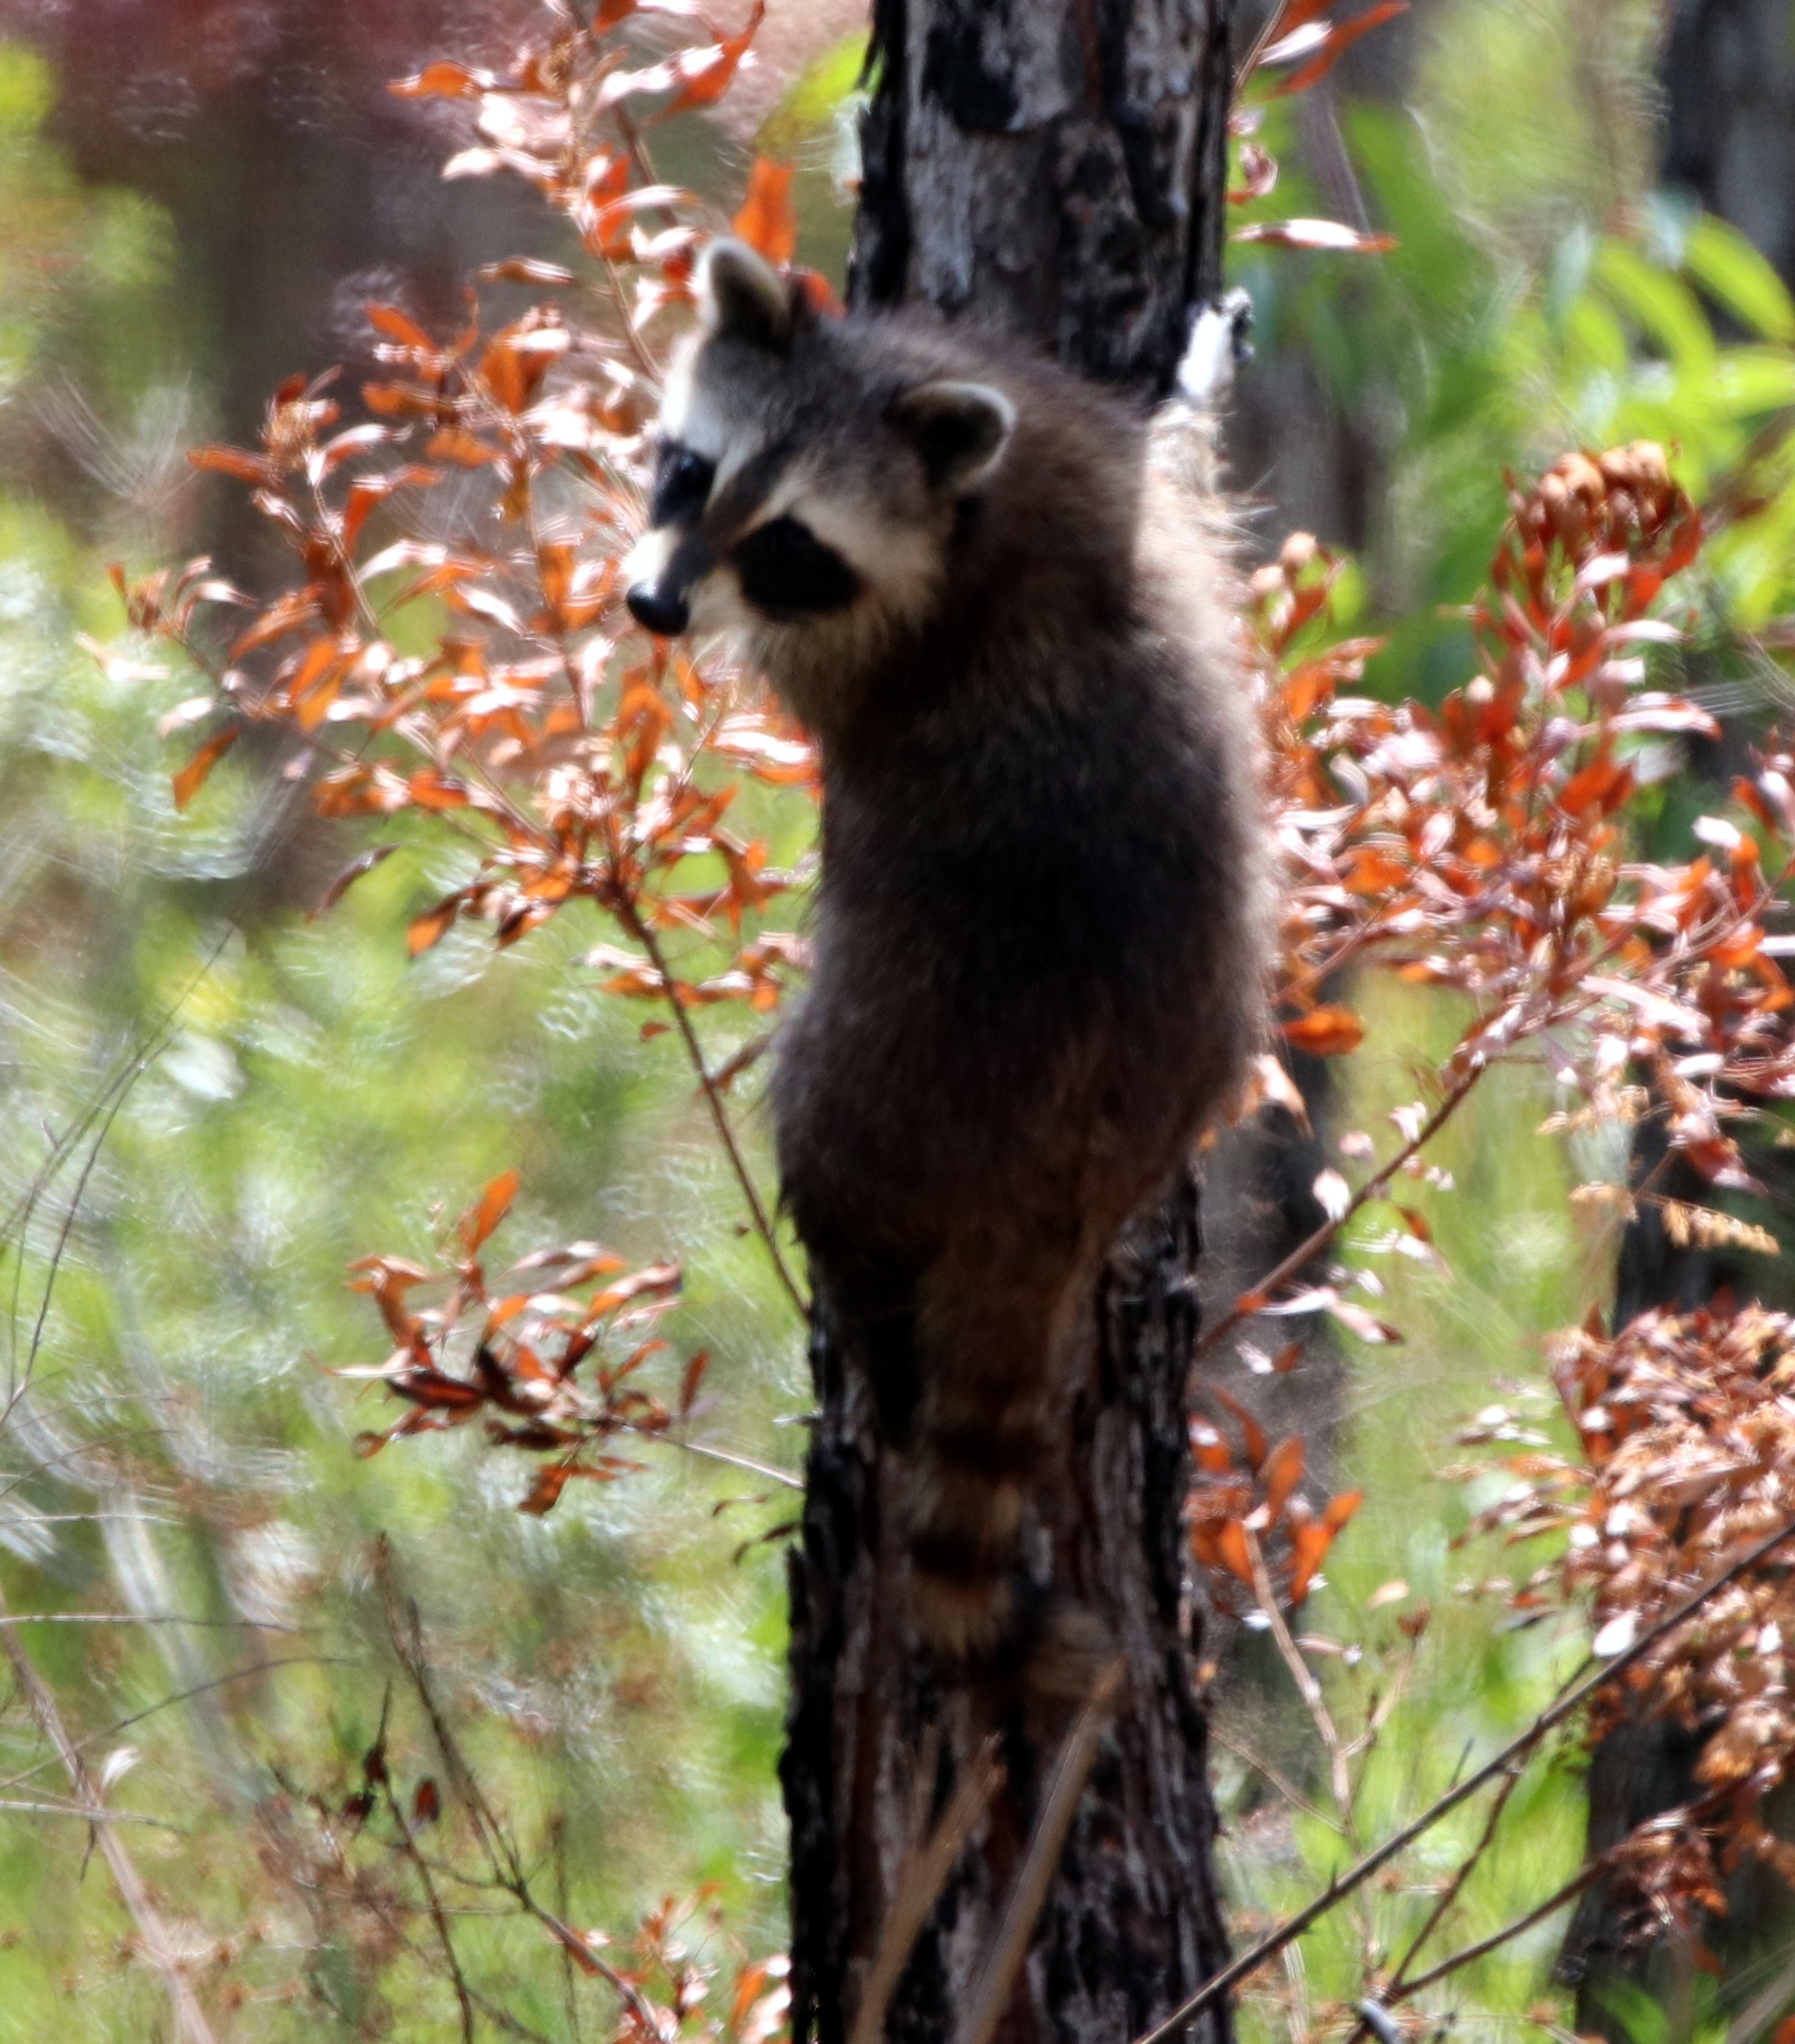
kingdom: Animalia
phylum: Chordata
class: Mammalia
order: Carnivora
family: Procyonidae
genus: Procyon
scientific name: Procyon lotor
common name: Raccoon
